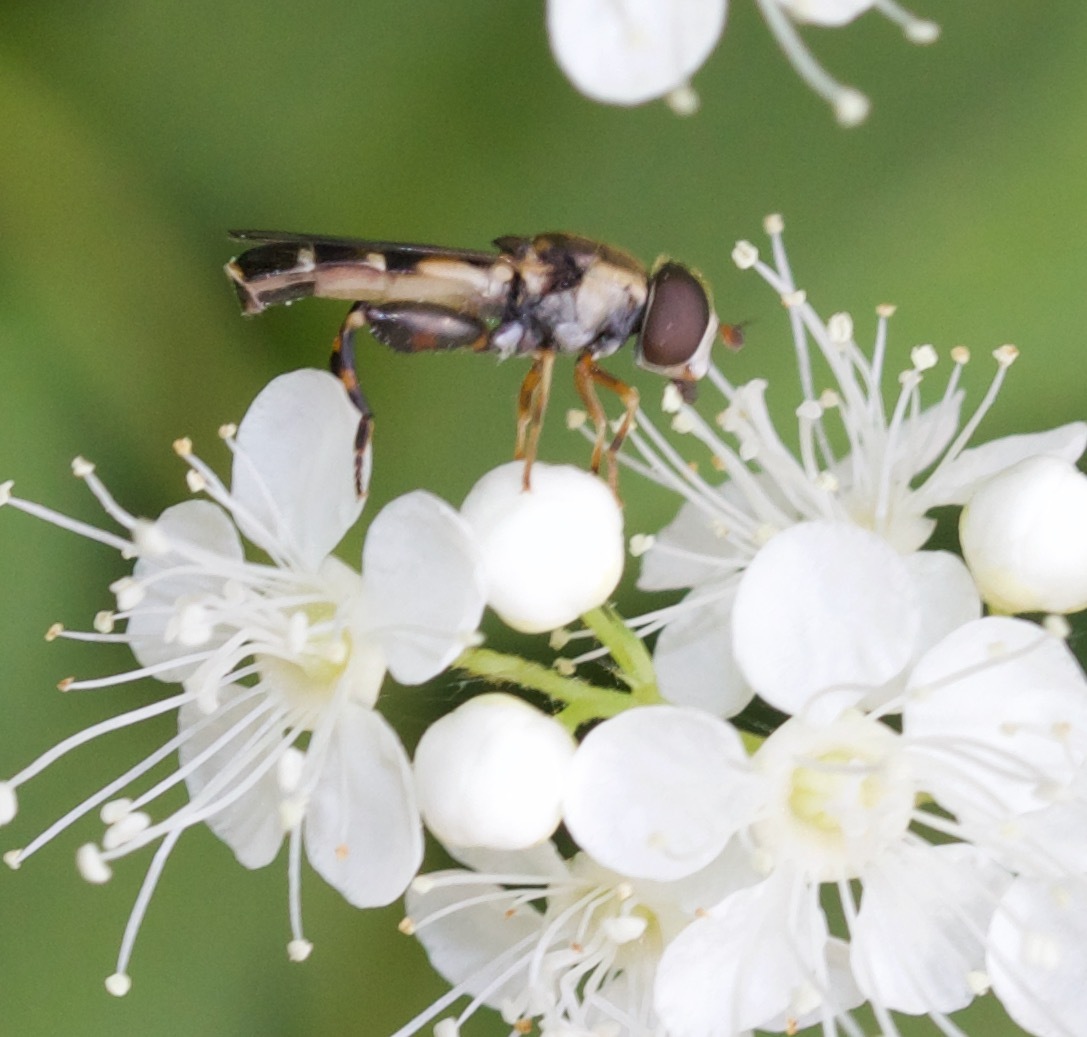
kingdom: Animalia
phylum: Arthropoda
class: Insecta
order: Diptera
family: Syrphidae
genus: Syritta
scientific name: Syritta pipiens
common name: Hover fly
